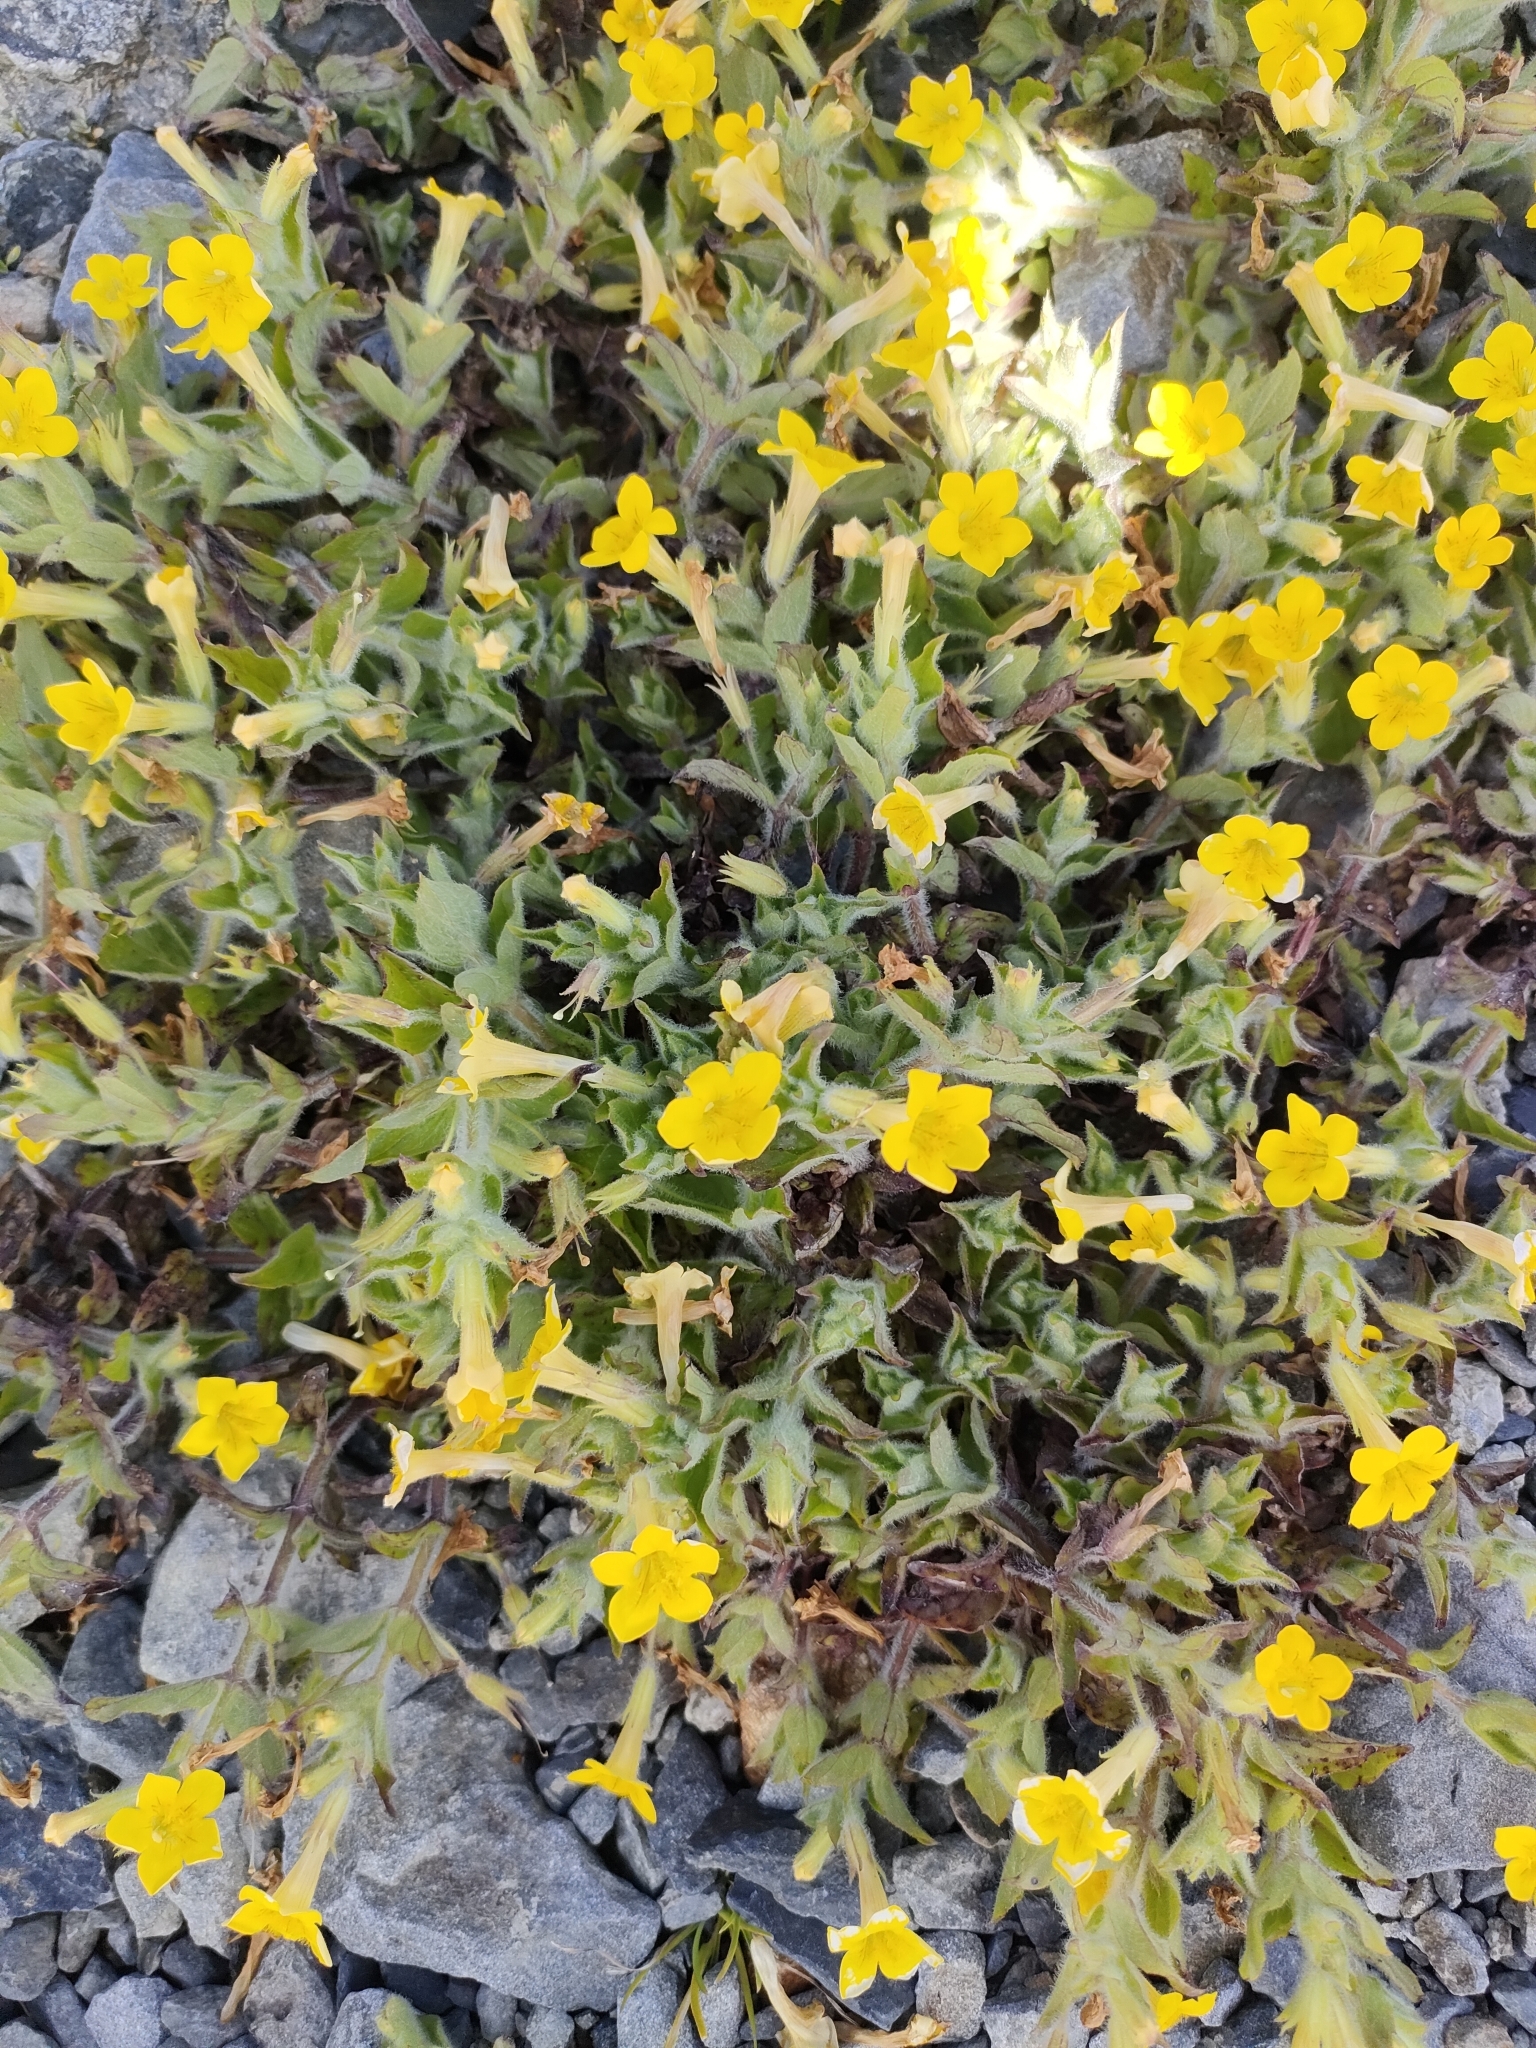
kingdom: Plantae
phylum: Tracheophyta
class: Magnoliopsida
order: Lamiales
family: Phrymaceae
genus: Erythranthe
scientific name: Erythranthe moschata
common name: Muskflower
